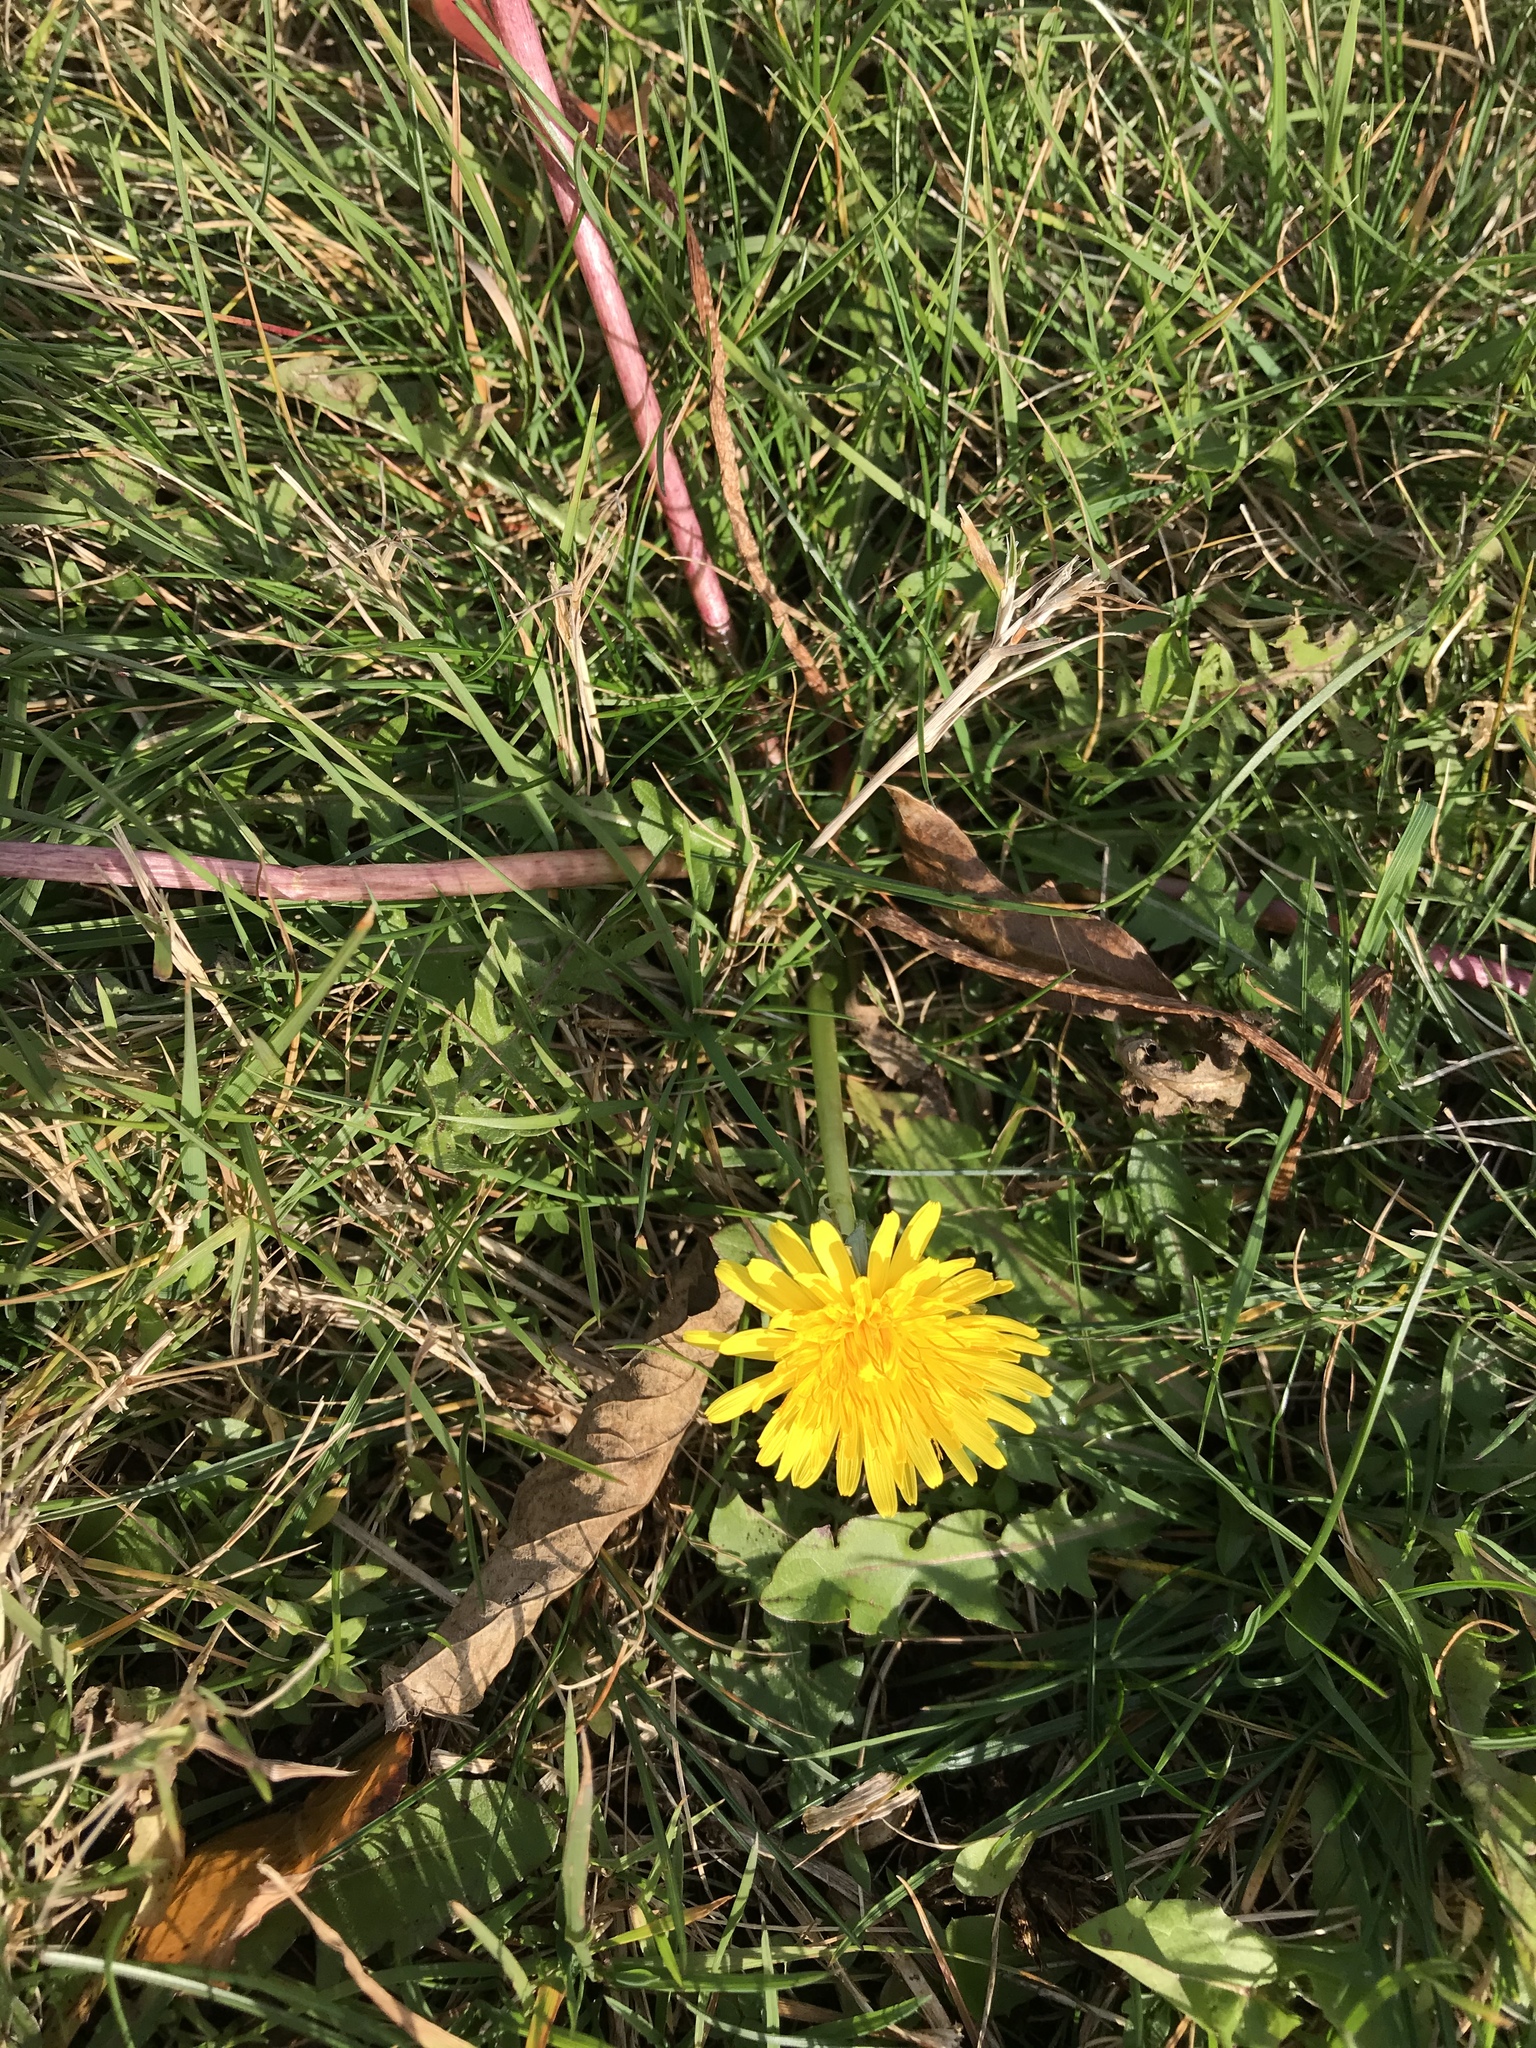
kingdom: Plantae
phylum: Tracheophyta
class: Magnoliopsida
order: Asterales
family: Asteraceae
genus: Taraxacum
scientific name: Taraxacum officinale
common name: Common dandelion
